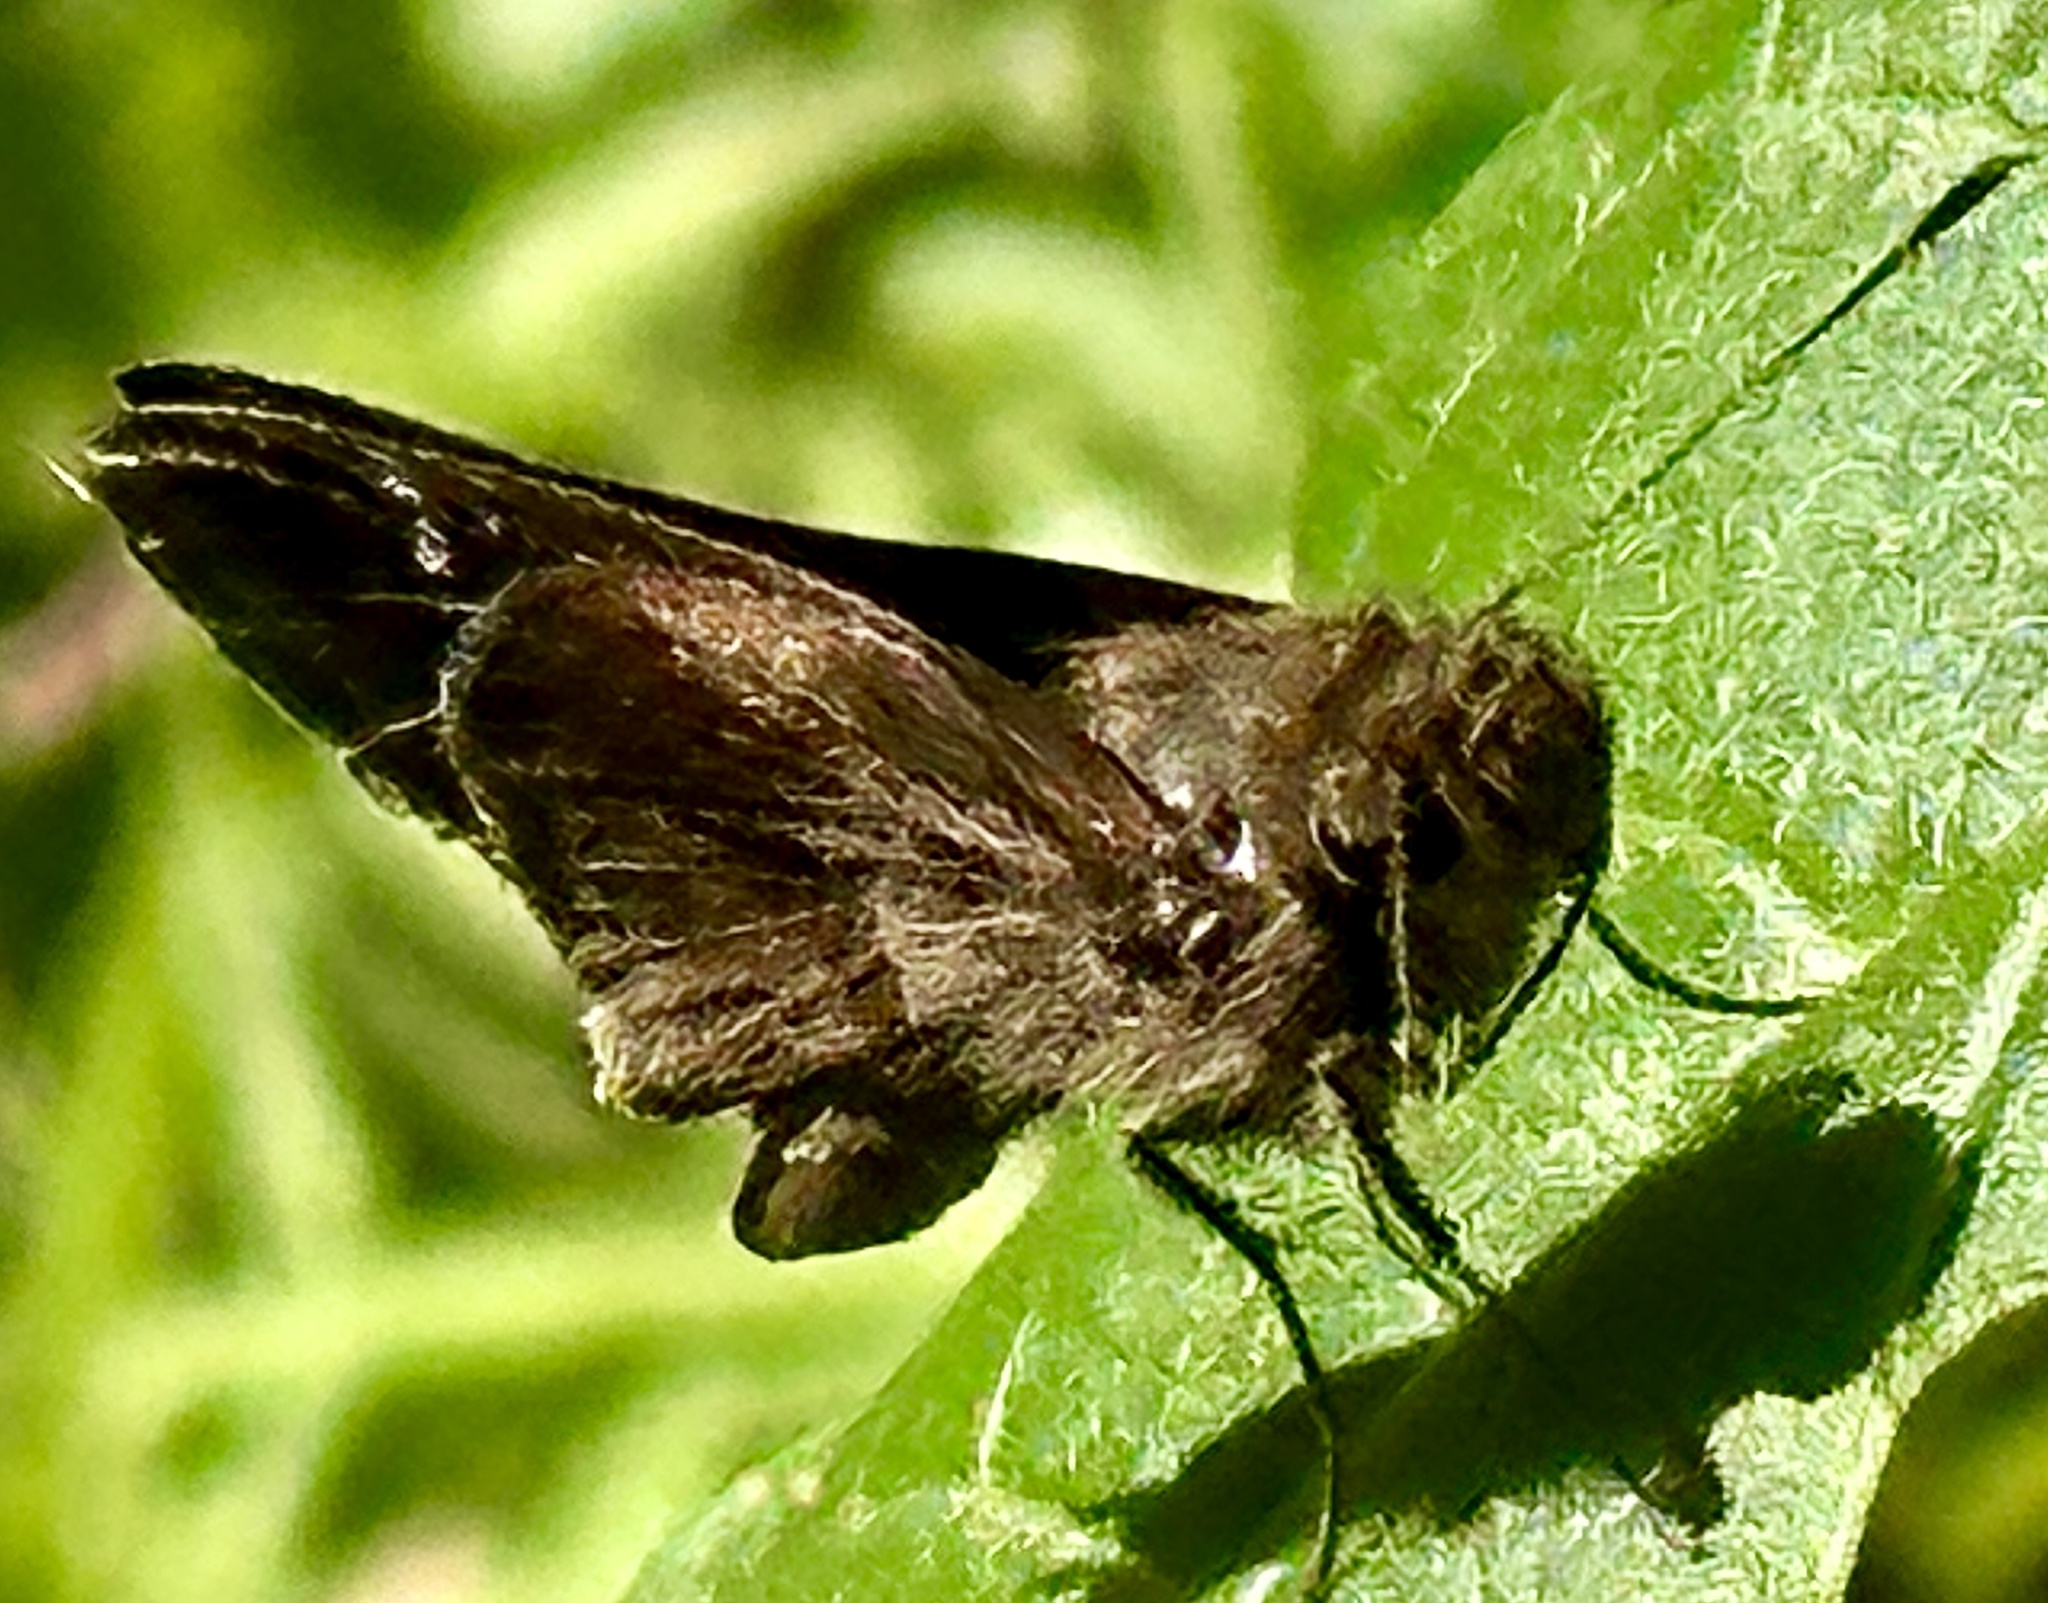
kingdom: Animalia
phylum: Arthropoda
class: Insecta
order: Lepidoptera
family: Hesperiidae
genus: Lerema
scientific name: Lerema accius
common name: Clouded skipper
